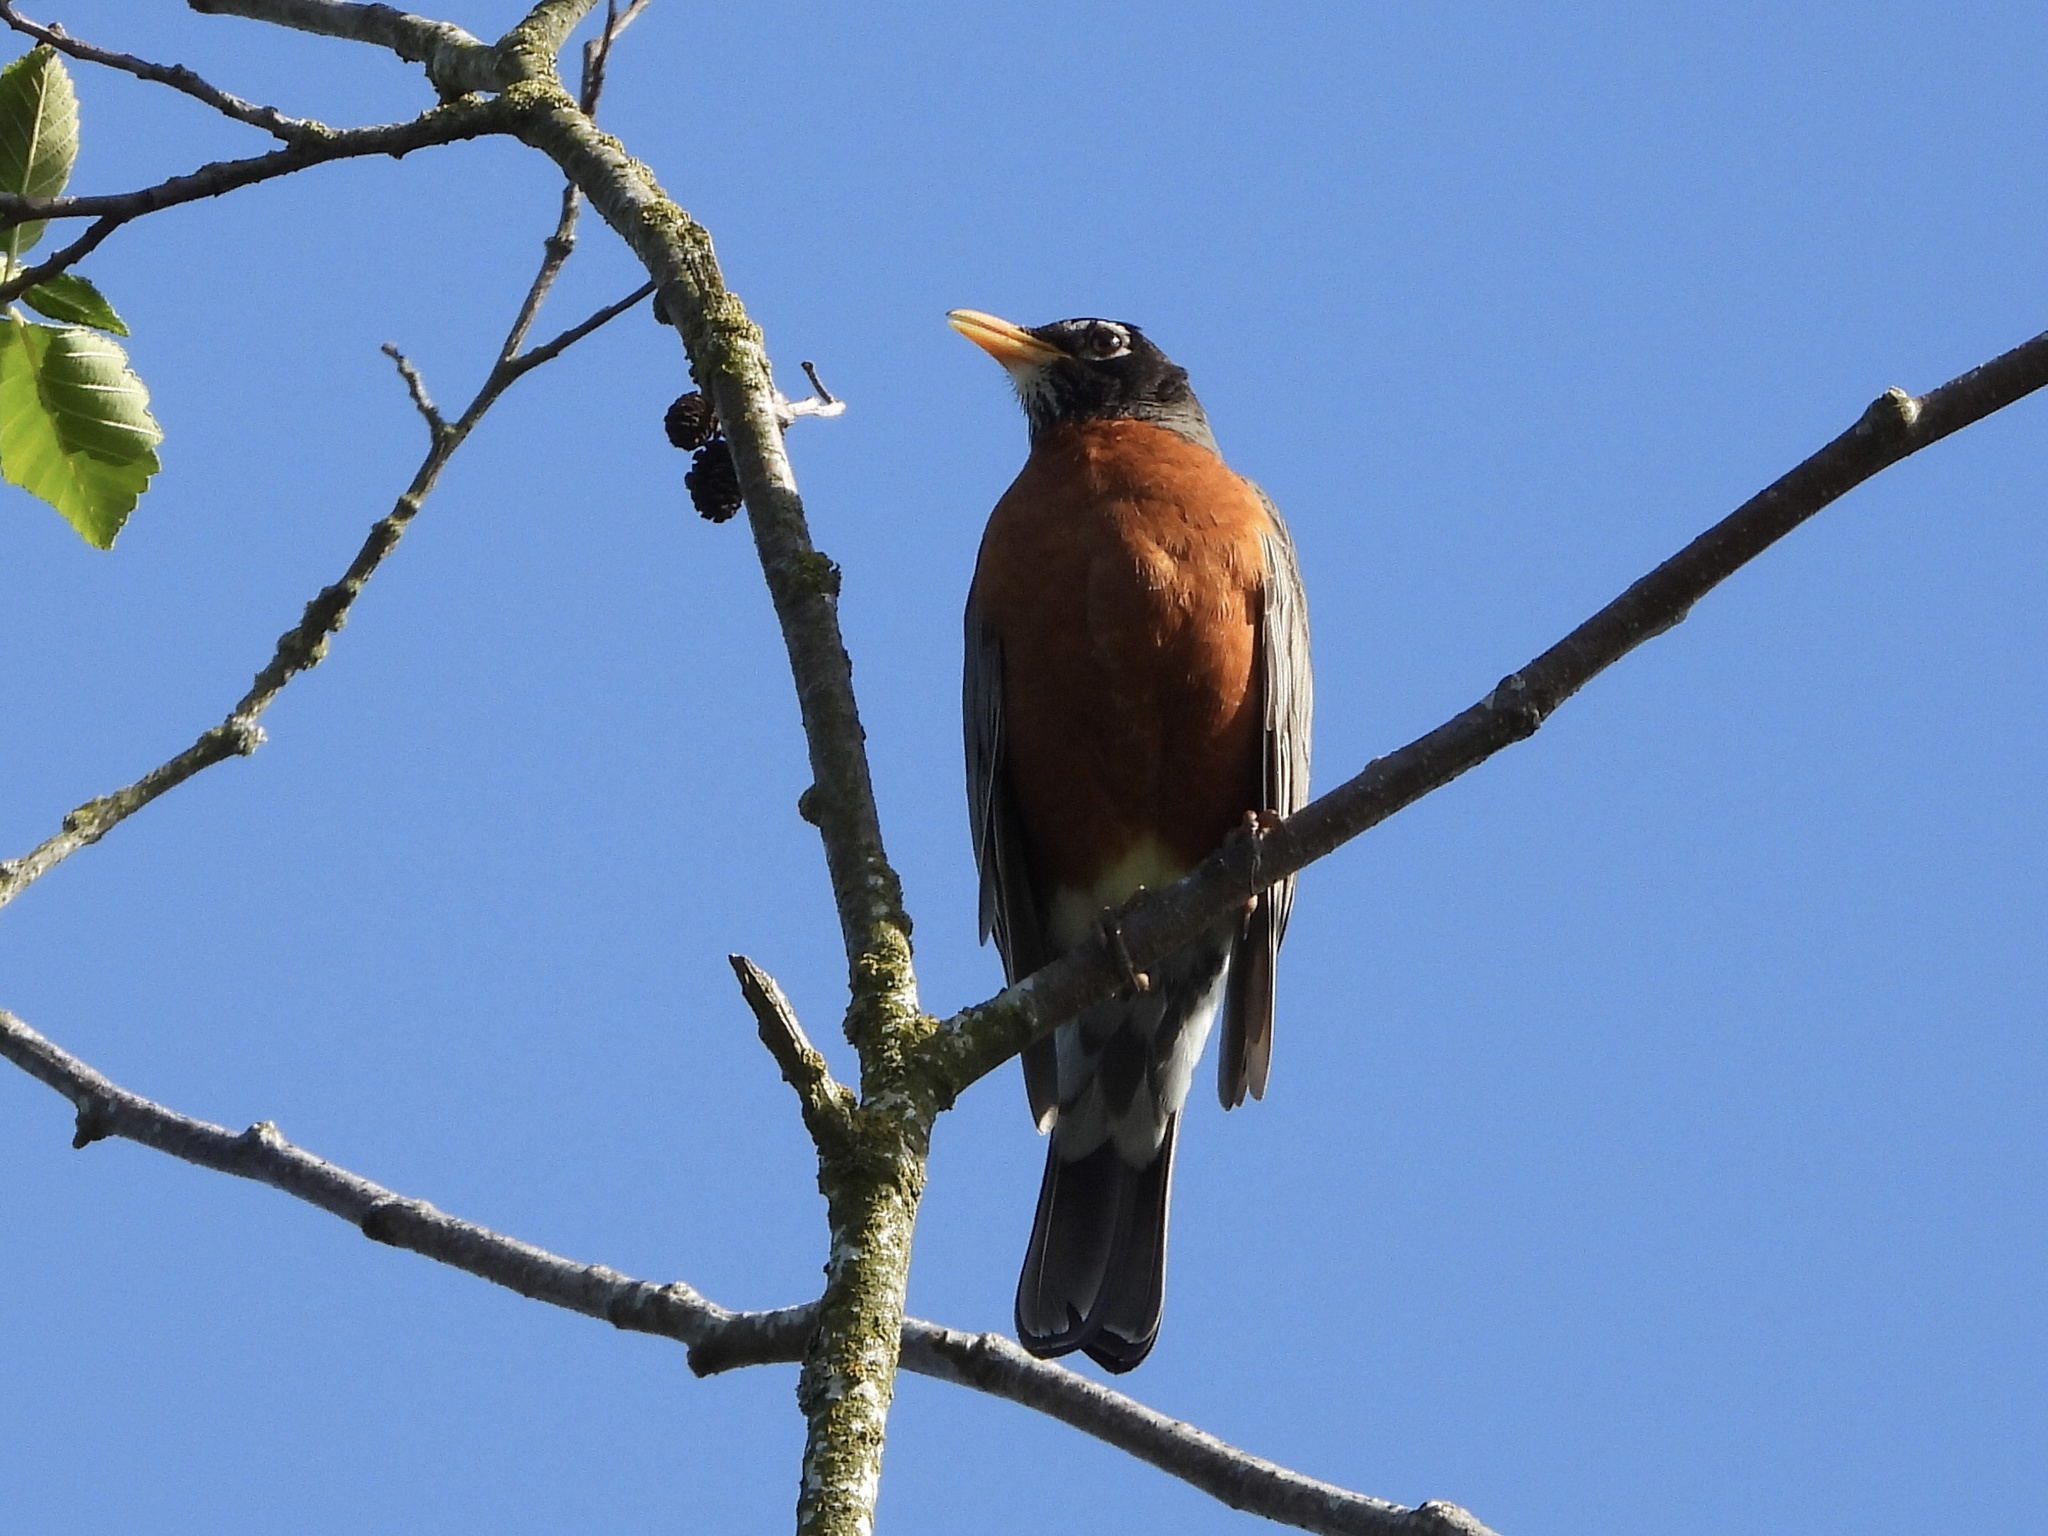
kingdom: Animalia
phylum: Chordata
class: Aves
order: Passeriformes
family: Turdidae
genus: Turdus
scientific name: Turdus migratorius
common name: American robin
